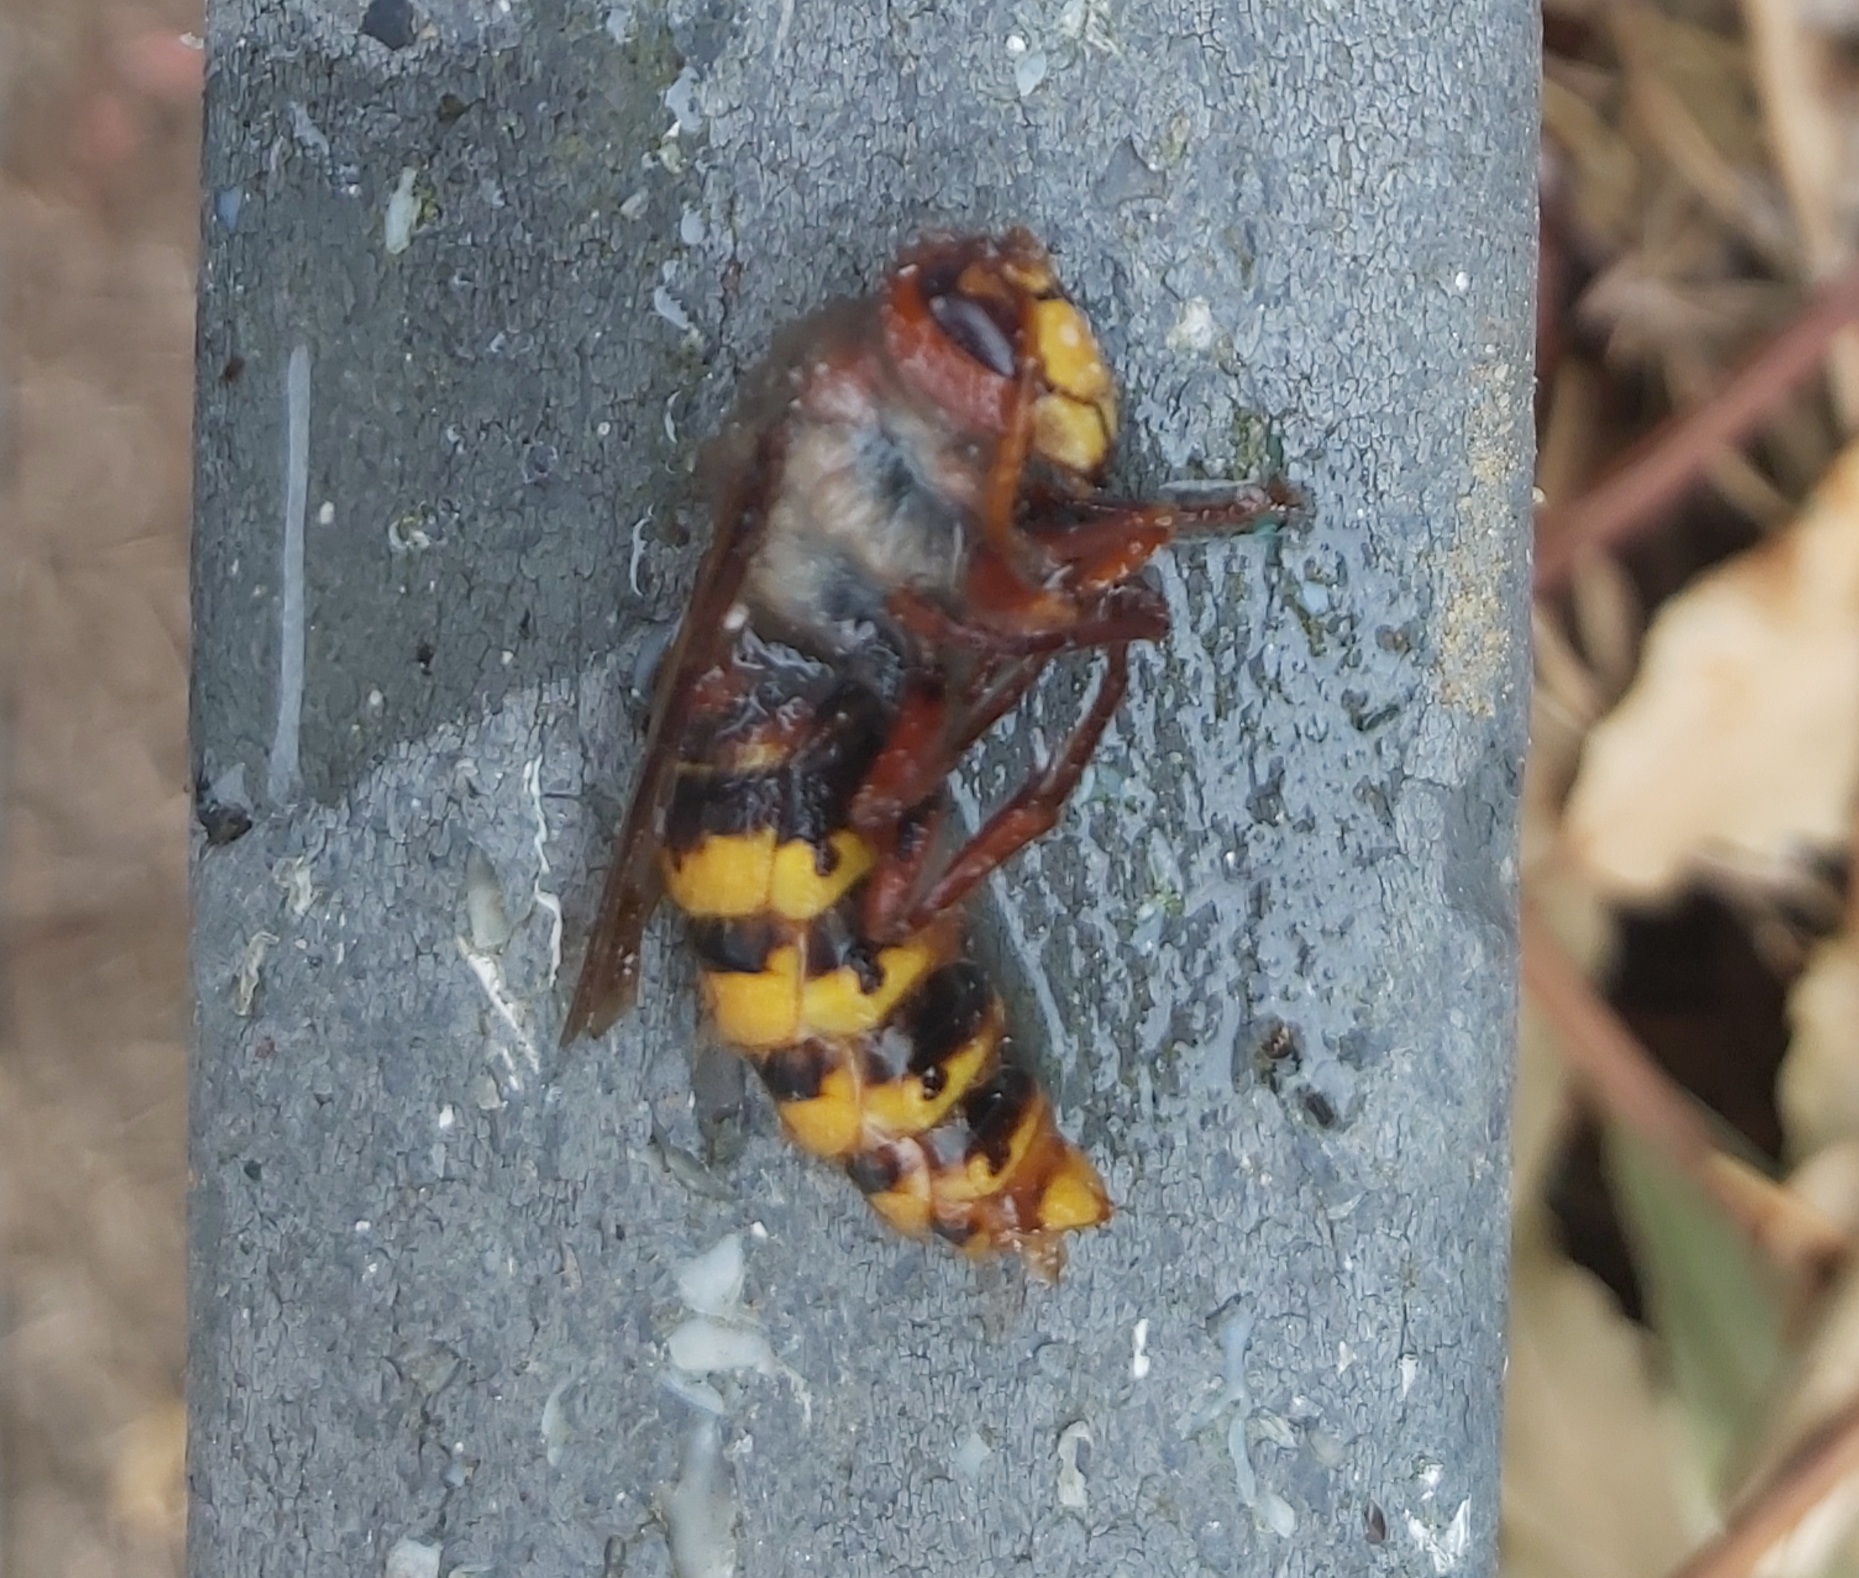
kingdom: Animalia
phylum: Arthropoda
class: Insecta
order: Hymenoptera
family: Vespidae
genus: Vespa
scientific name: Vespa crabro
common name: Hornet
